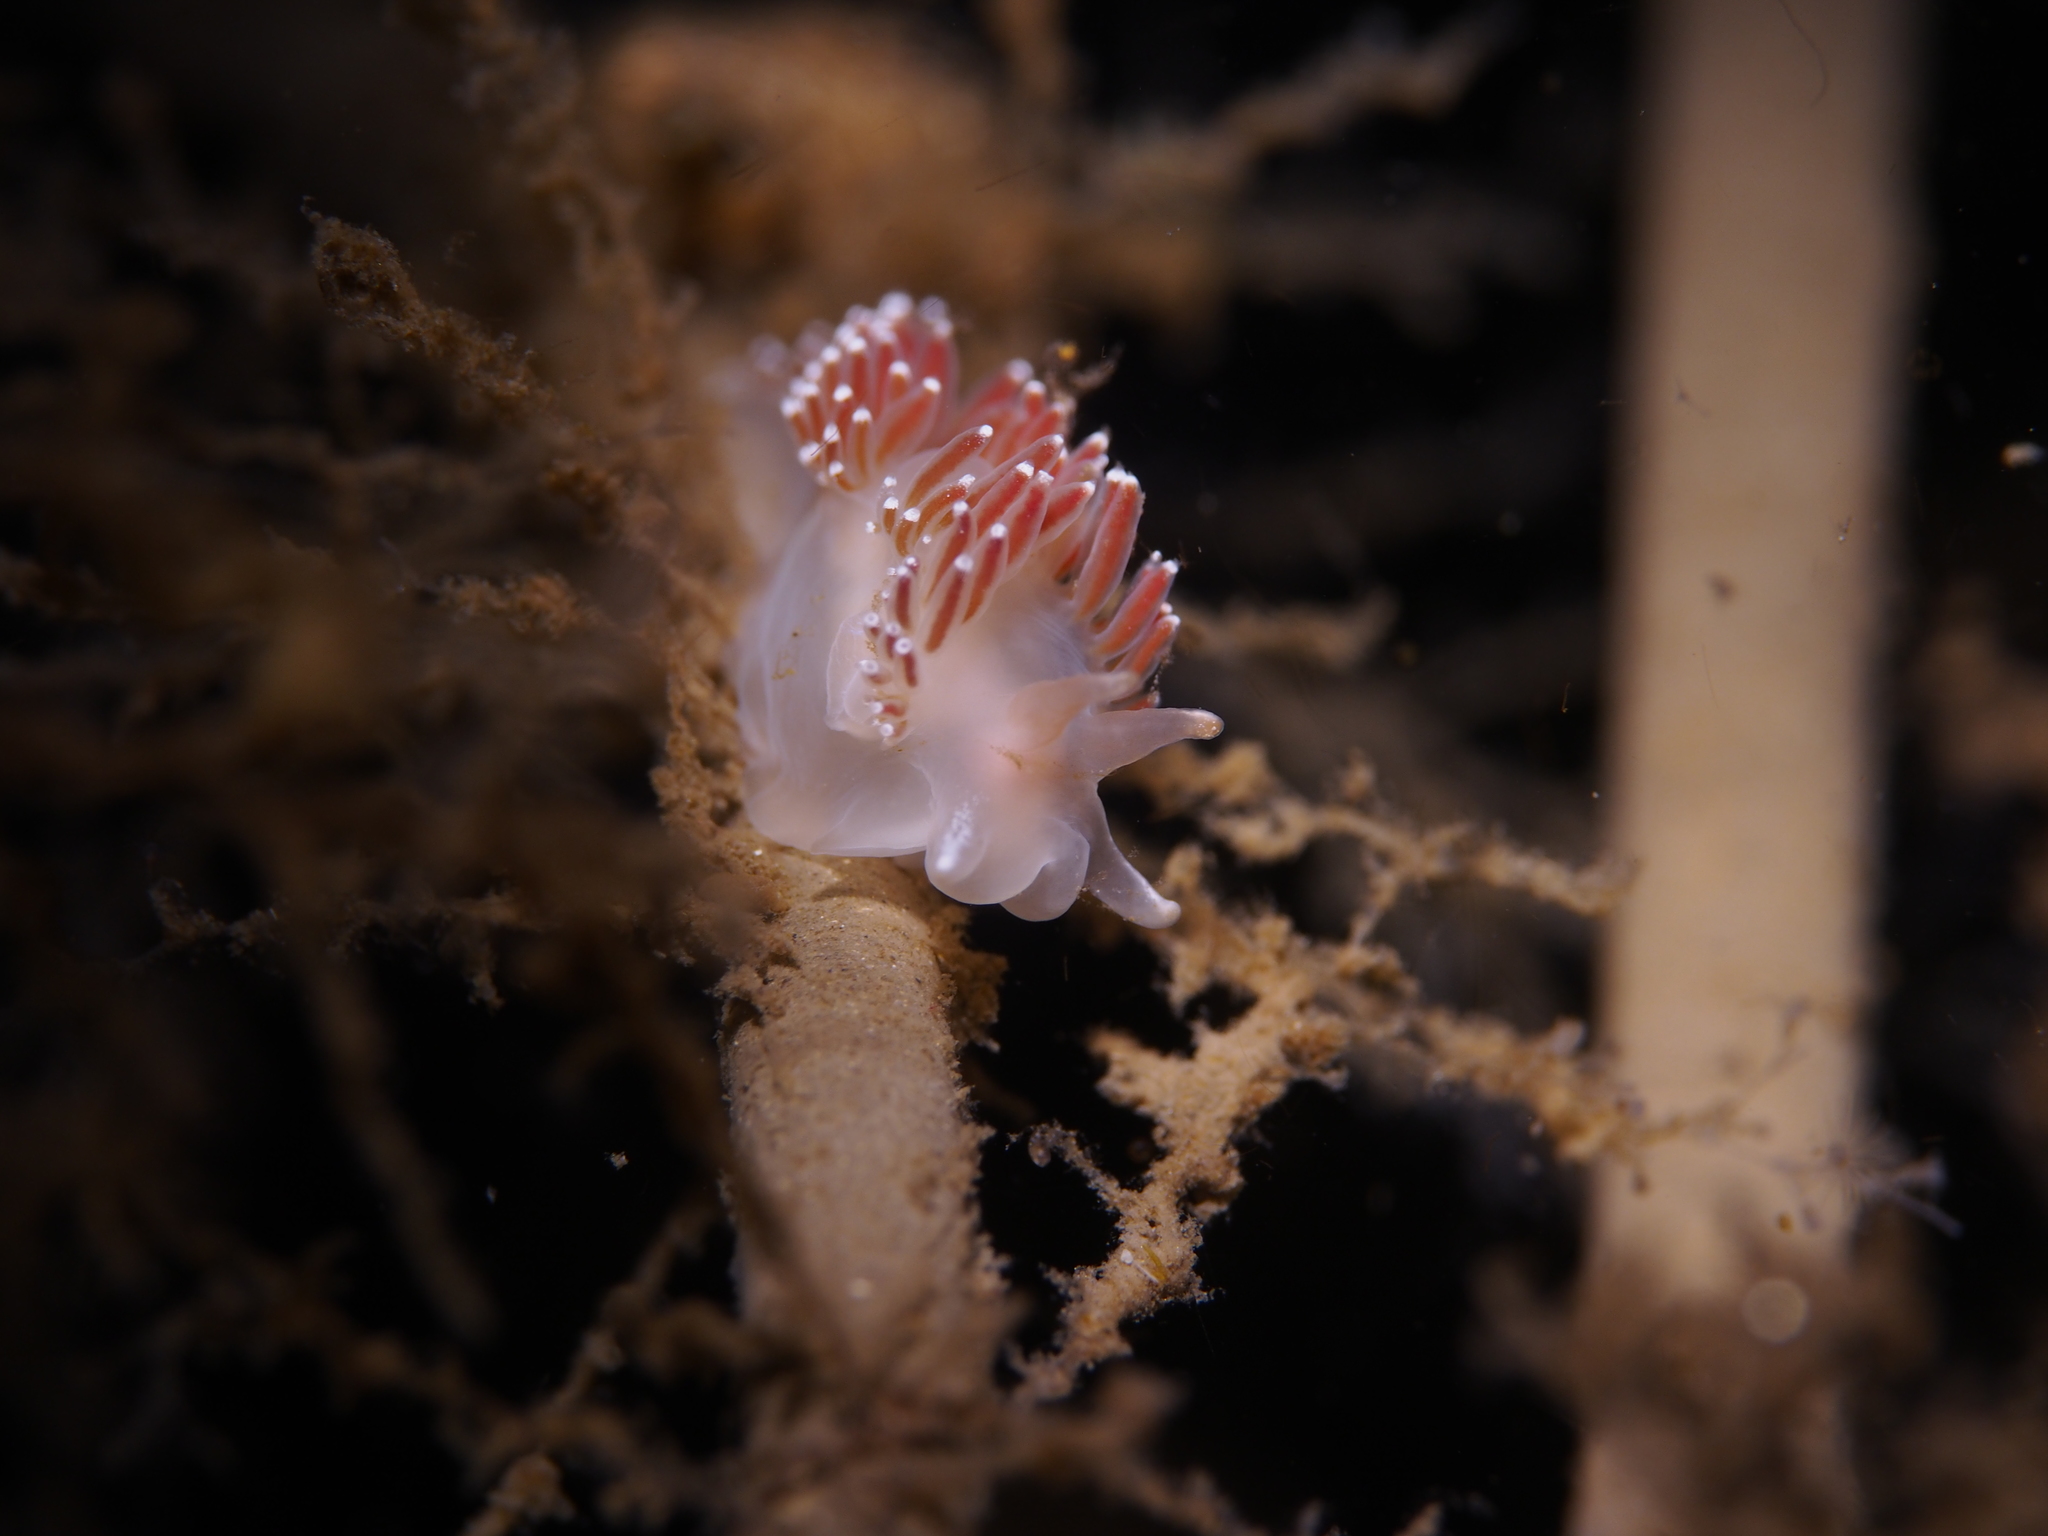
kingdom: Animalia
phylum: Mollusca
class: Gastropoda
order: Nudibranchia
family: Coryphellidae
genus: Coryphella
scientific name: Coryphella verrucosa
